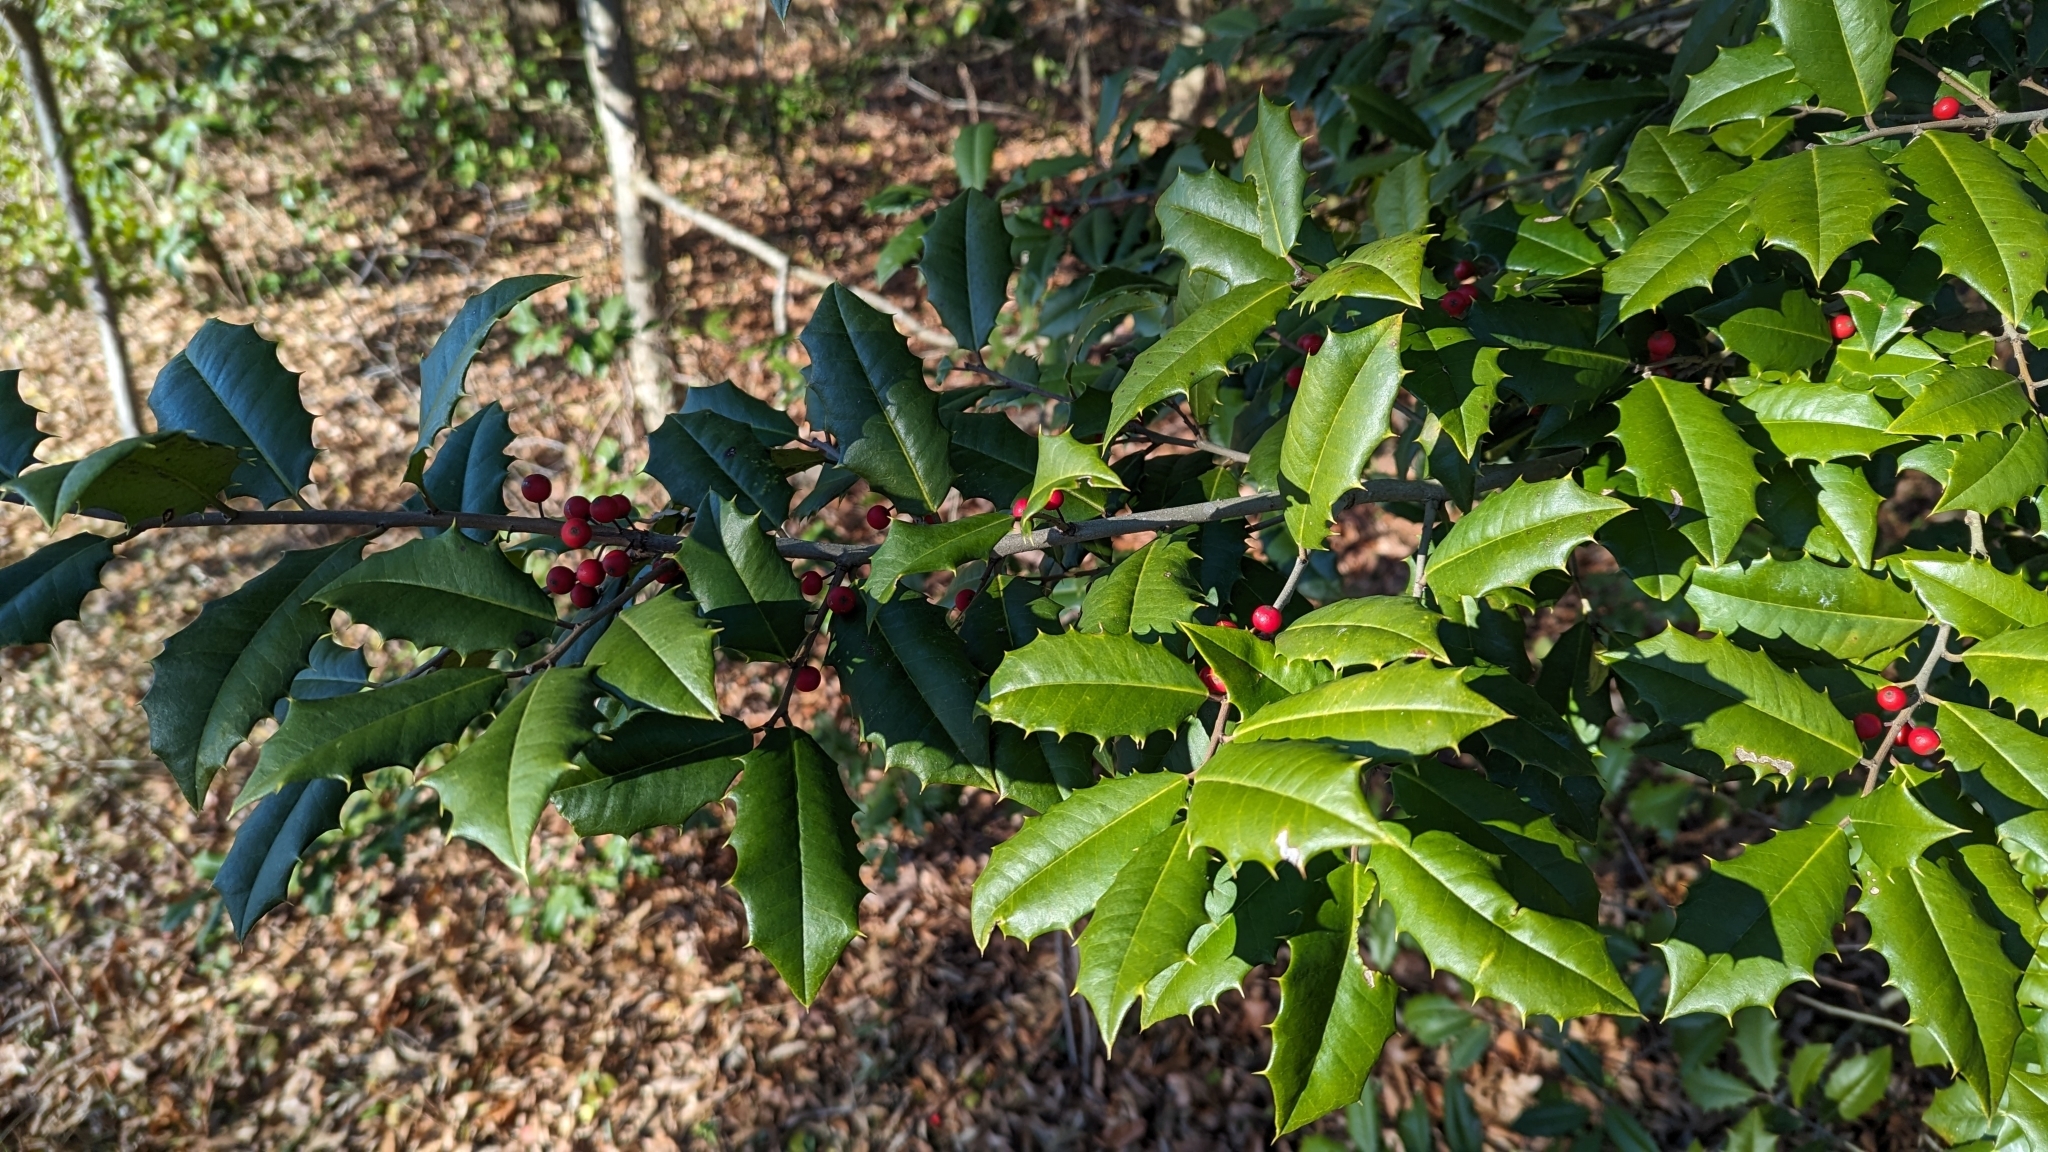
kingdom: Plantae
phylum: Tracheophyta
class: Magnoliopsida
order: Aquifoliales
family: Aquifoliaceae
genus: Ilex
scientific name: Ilex opaca
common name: American holly
